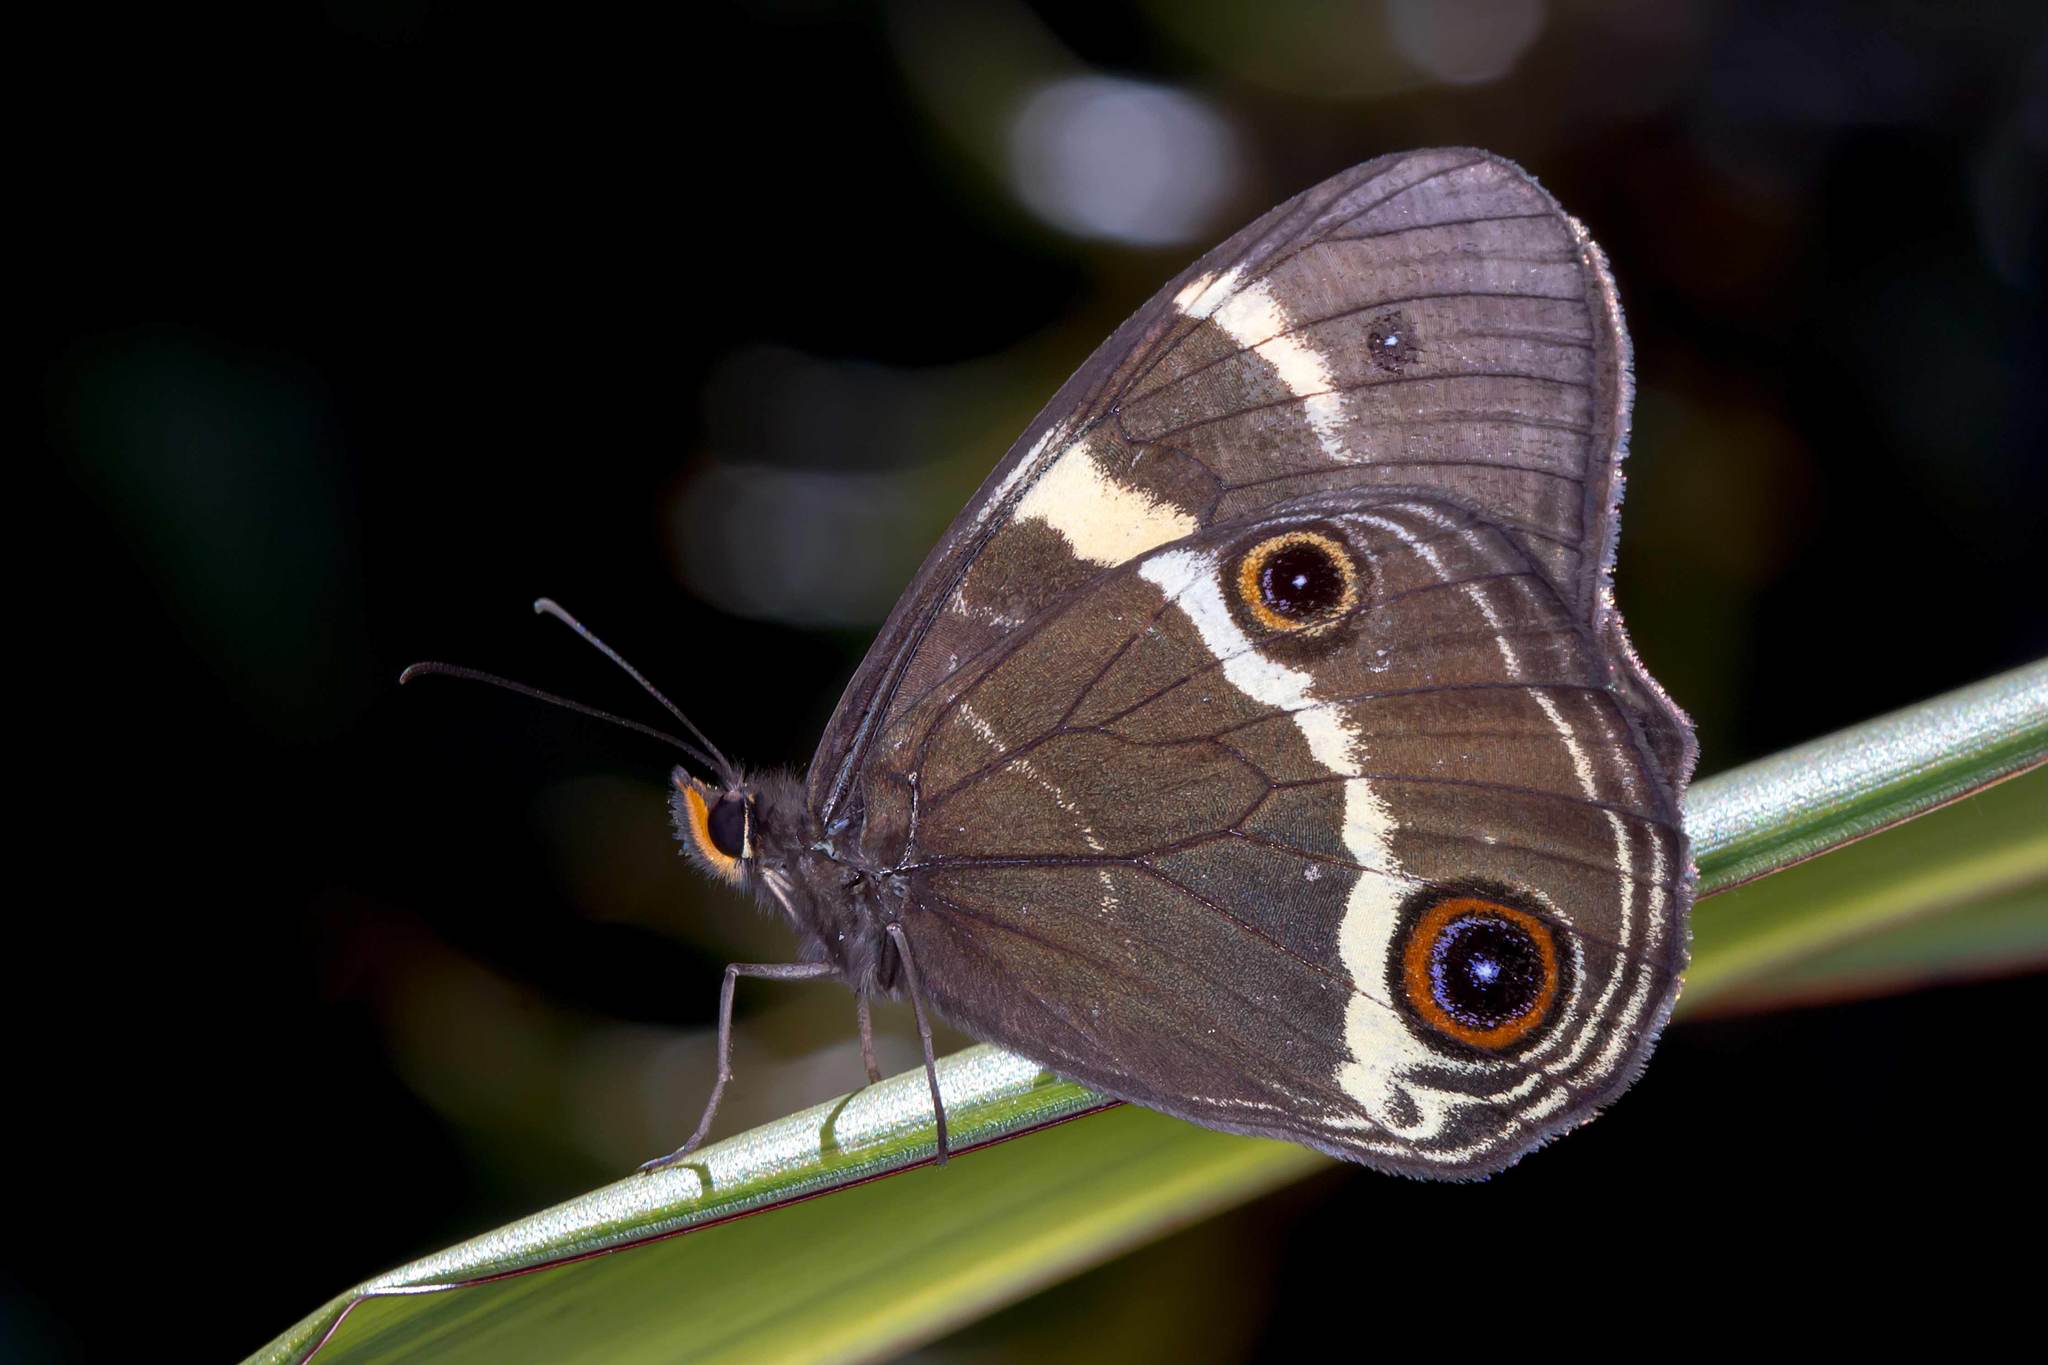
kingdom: Animalia
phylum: Arthropoda
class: Insecta
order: Lepidoptera
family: Nymphalidae
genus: Tisiphone
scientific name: Tisiphone abeona
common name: Swordgrass brown
